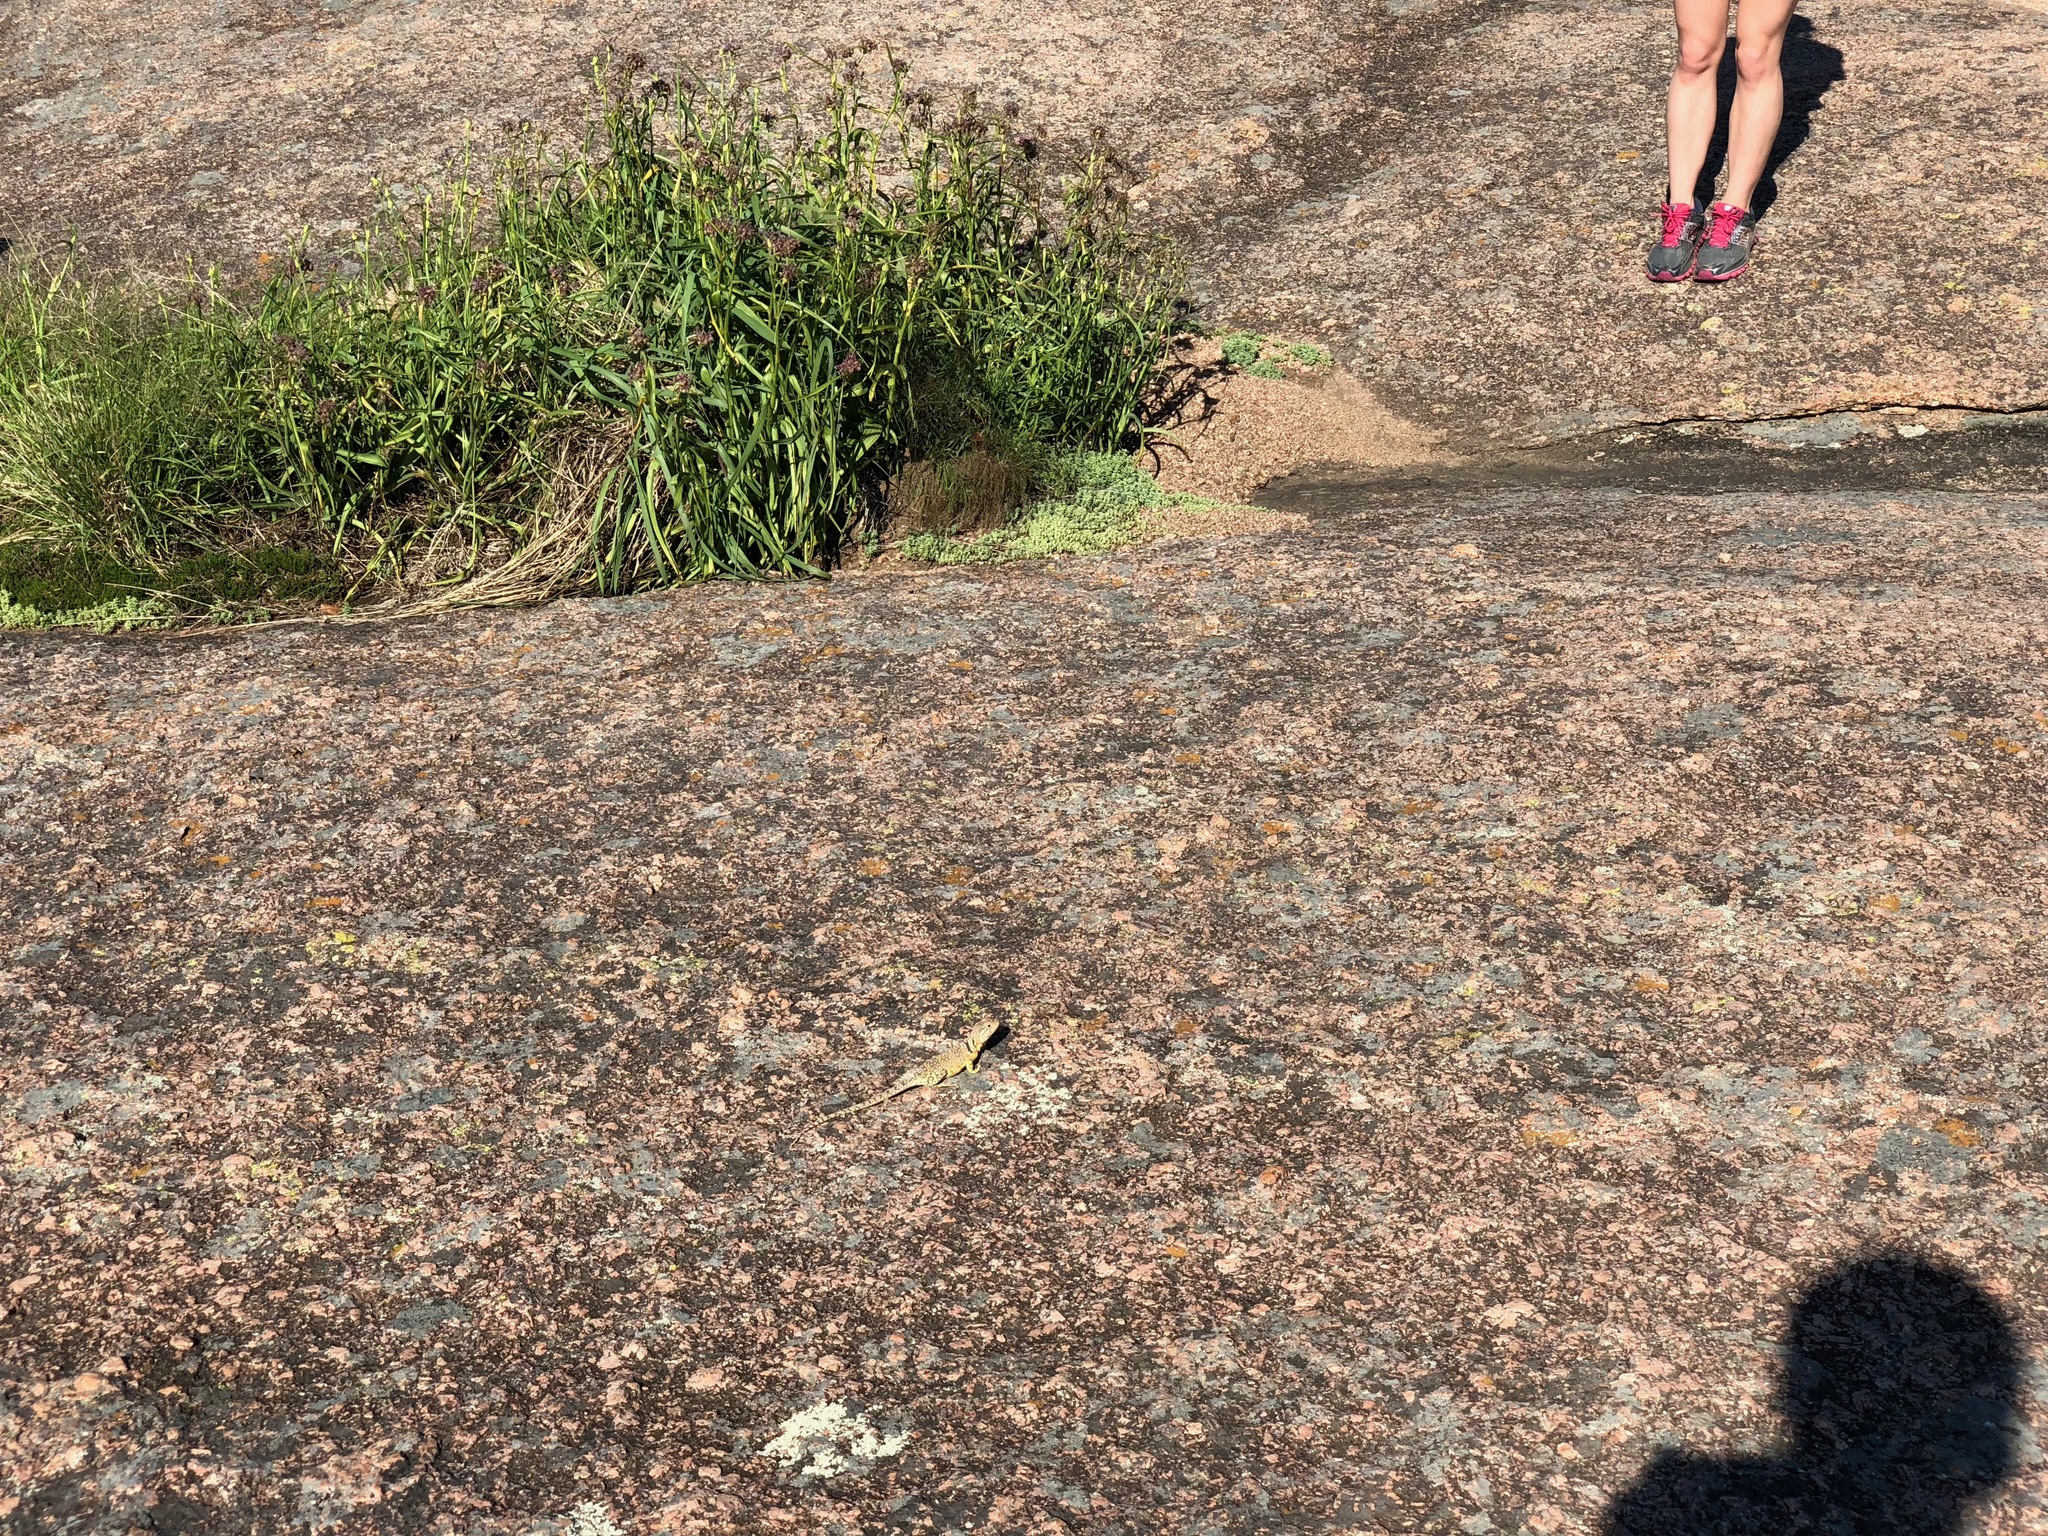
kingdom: Animalia
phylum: Chordata
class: Squamata
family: Crotaphytidae
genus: Crotaphytus
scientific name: Crotaphytus collaris
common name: Collared lizard
